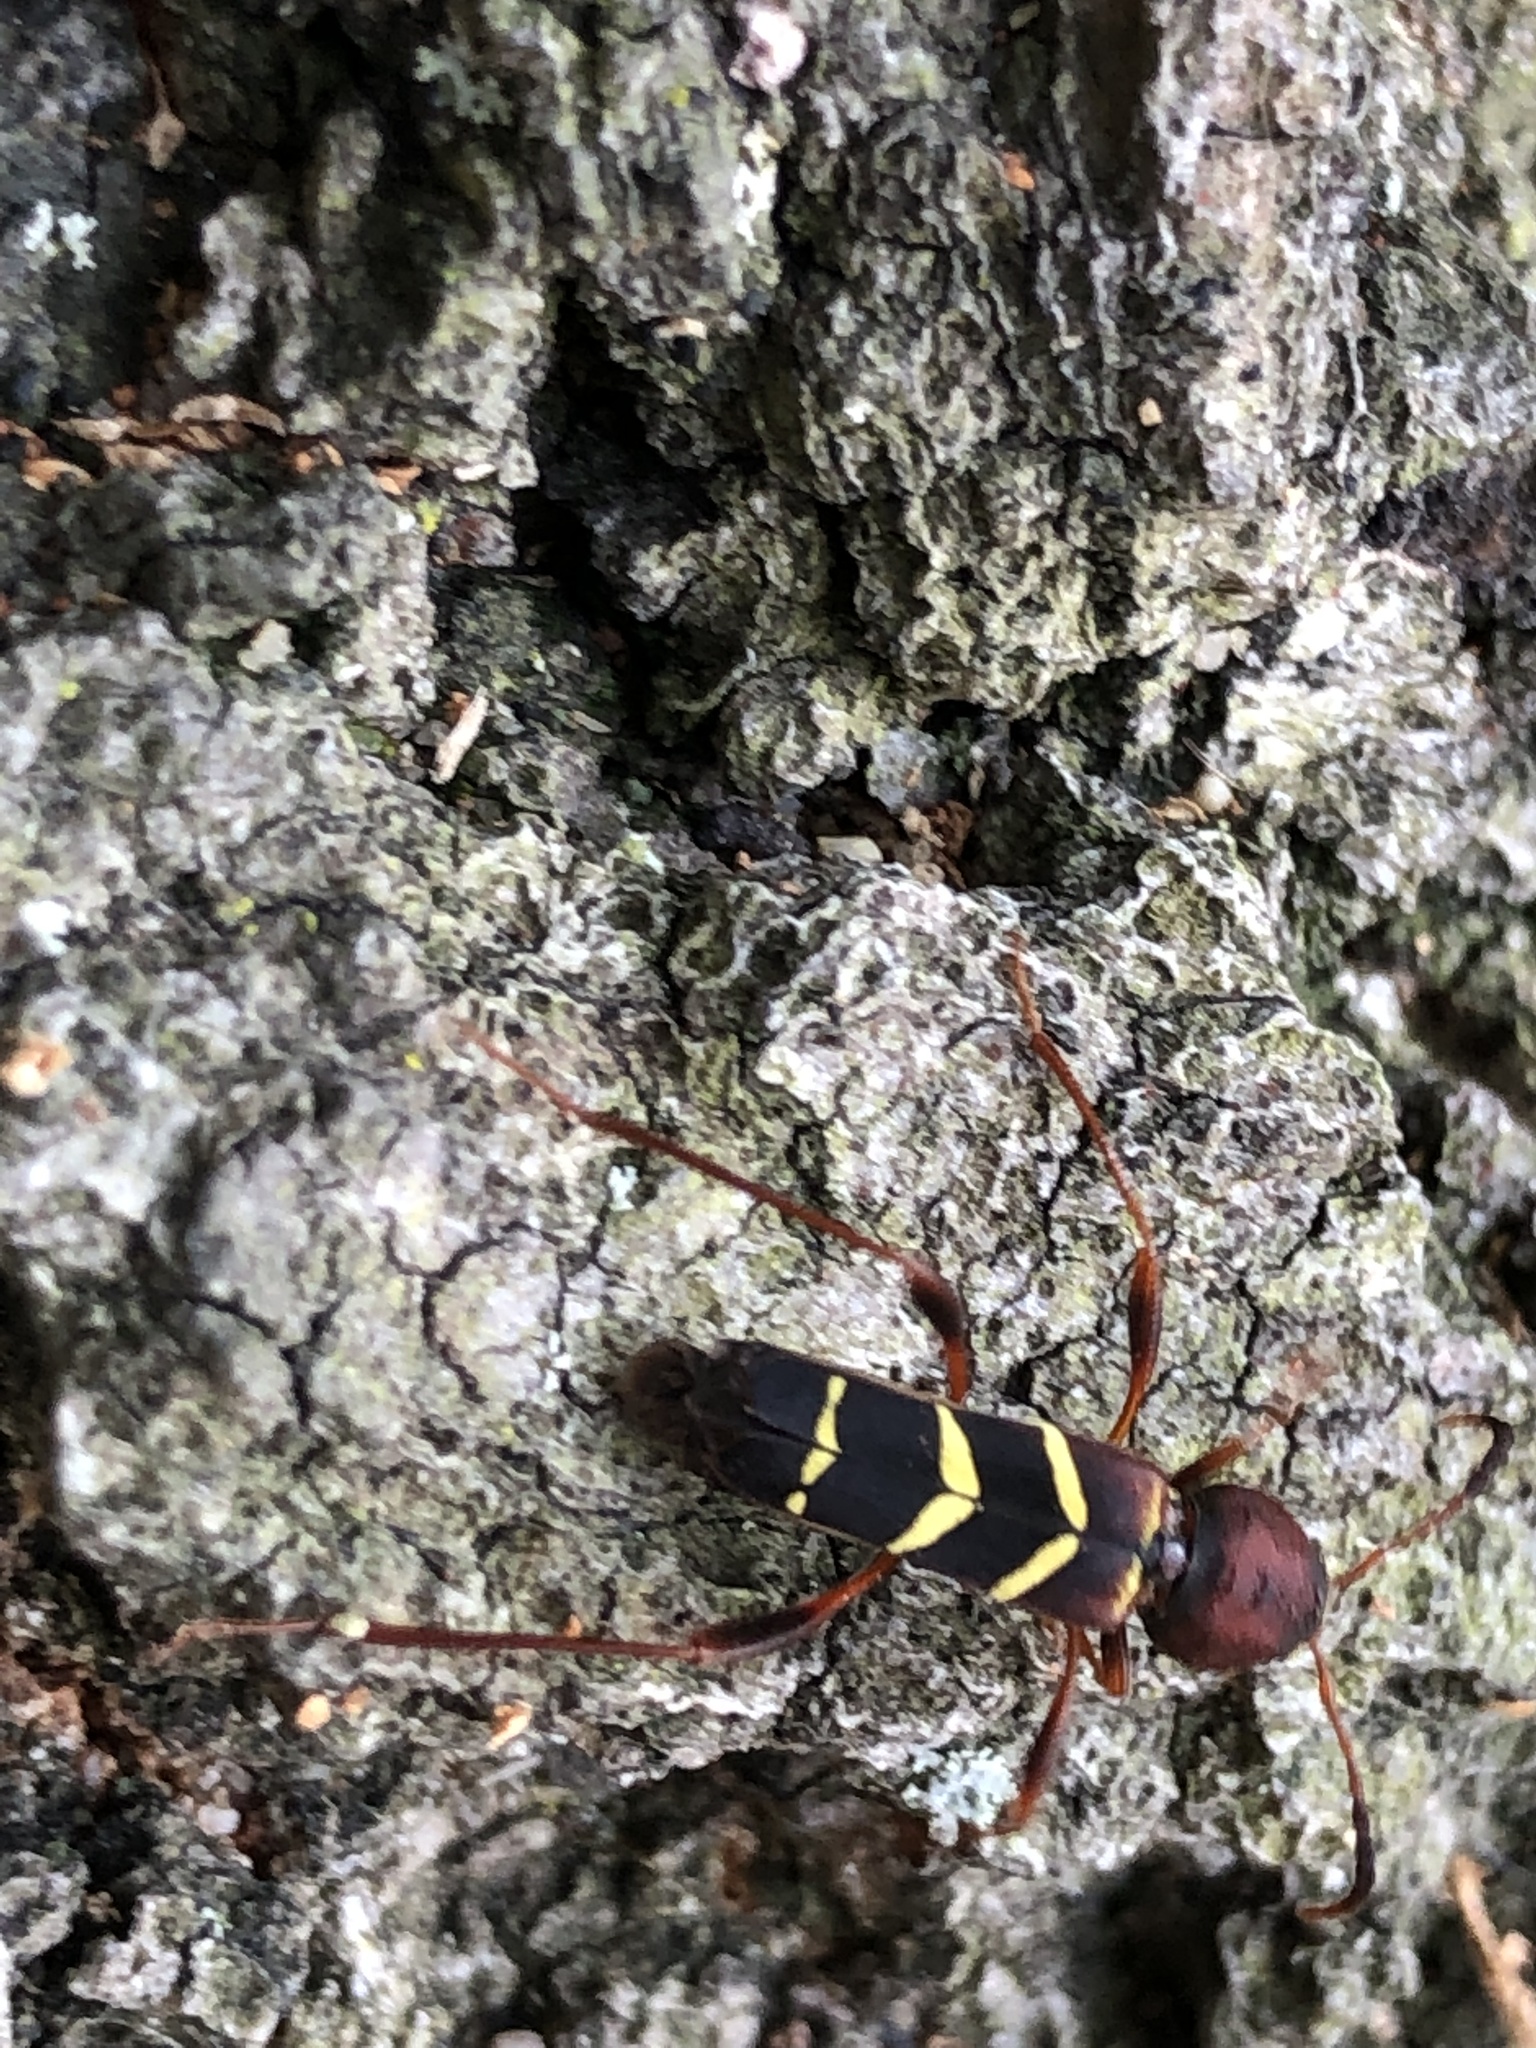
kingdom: Animalia
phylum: Arthropoda
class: Insecta
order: Coleoptera
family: Cerambycidae
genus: Neoclytus
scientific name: Neoclytus acuminatus
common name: Read-headed ash borer
